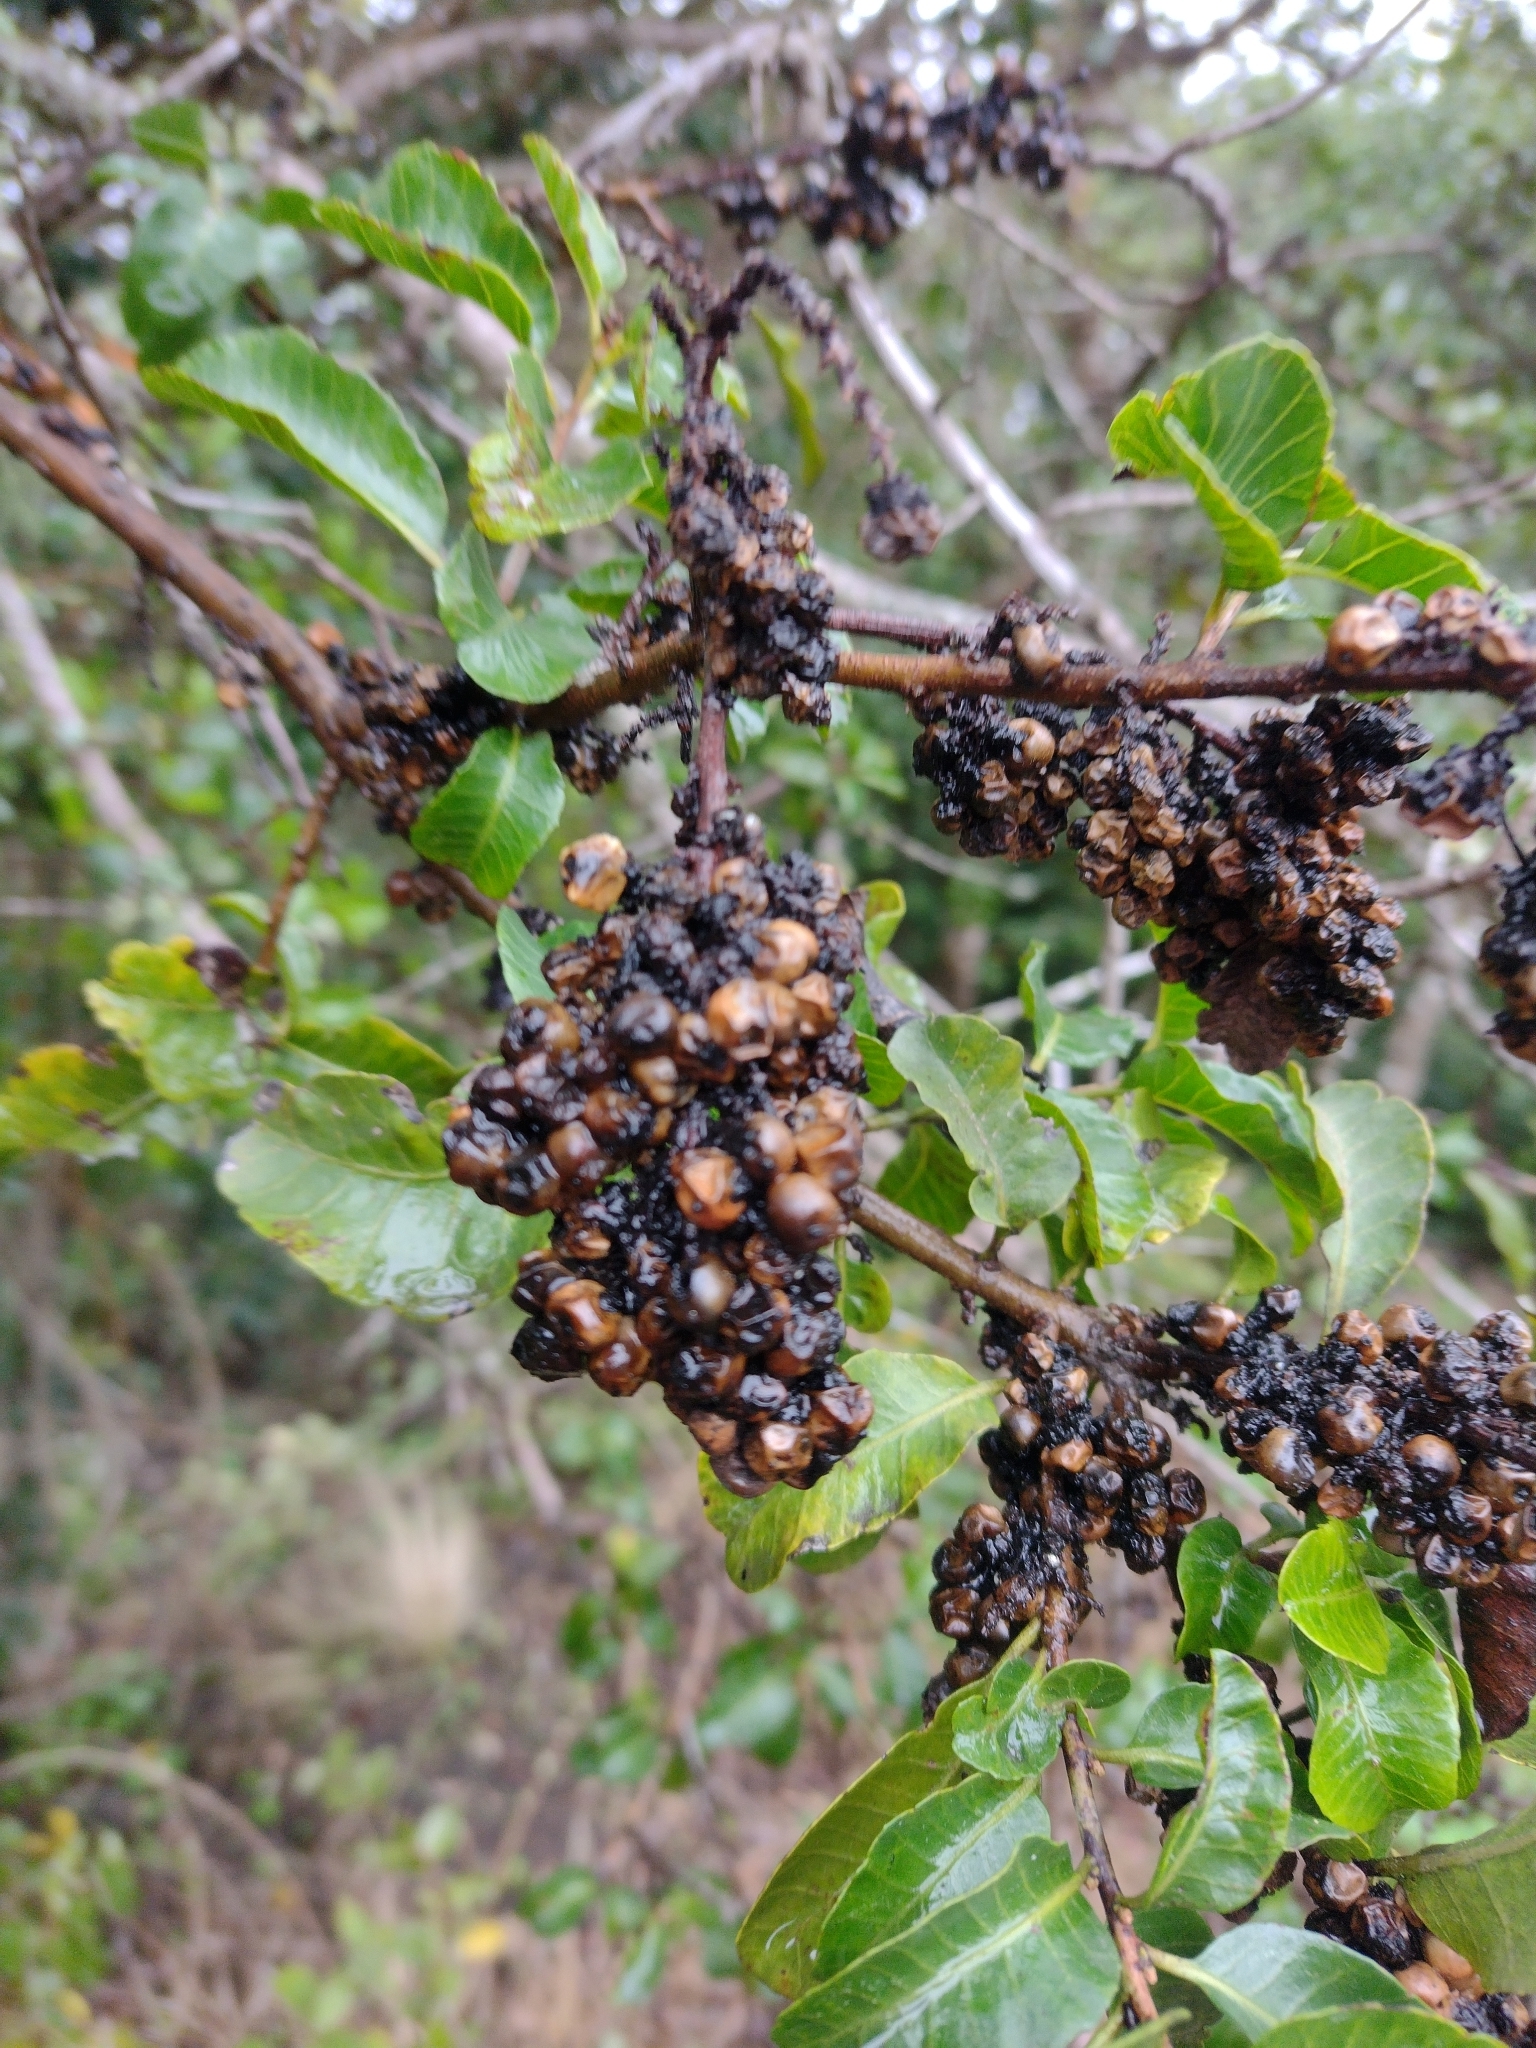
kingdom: Plantae
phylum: Tracheophyta
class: Magnoliopsida
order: Sapindales
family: Anacardiaceae
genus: Schinus
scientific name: Schinus latifolia
